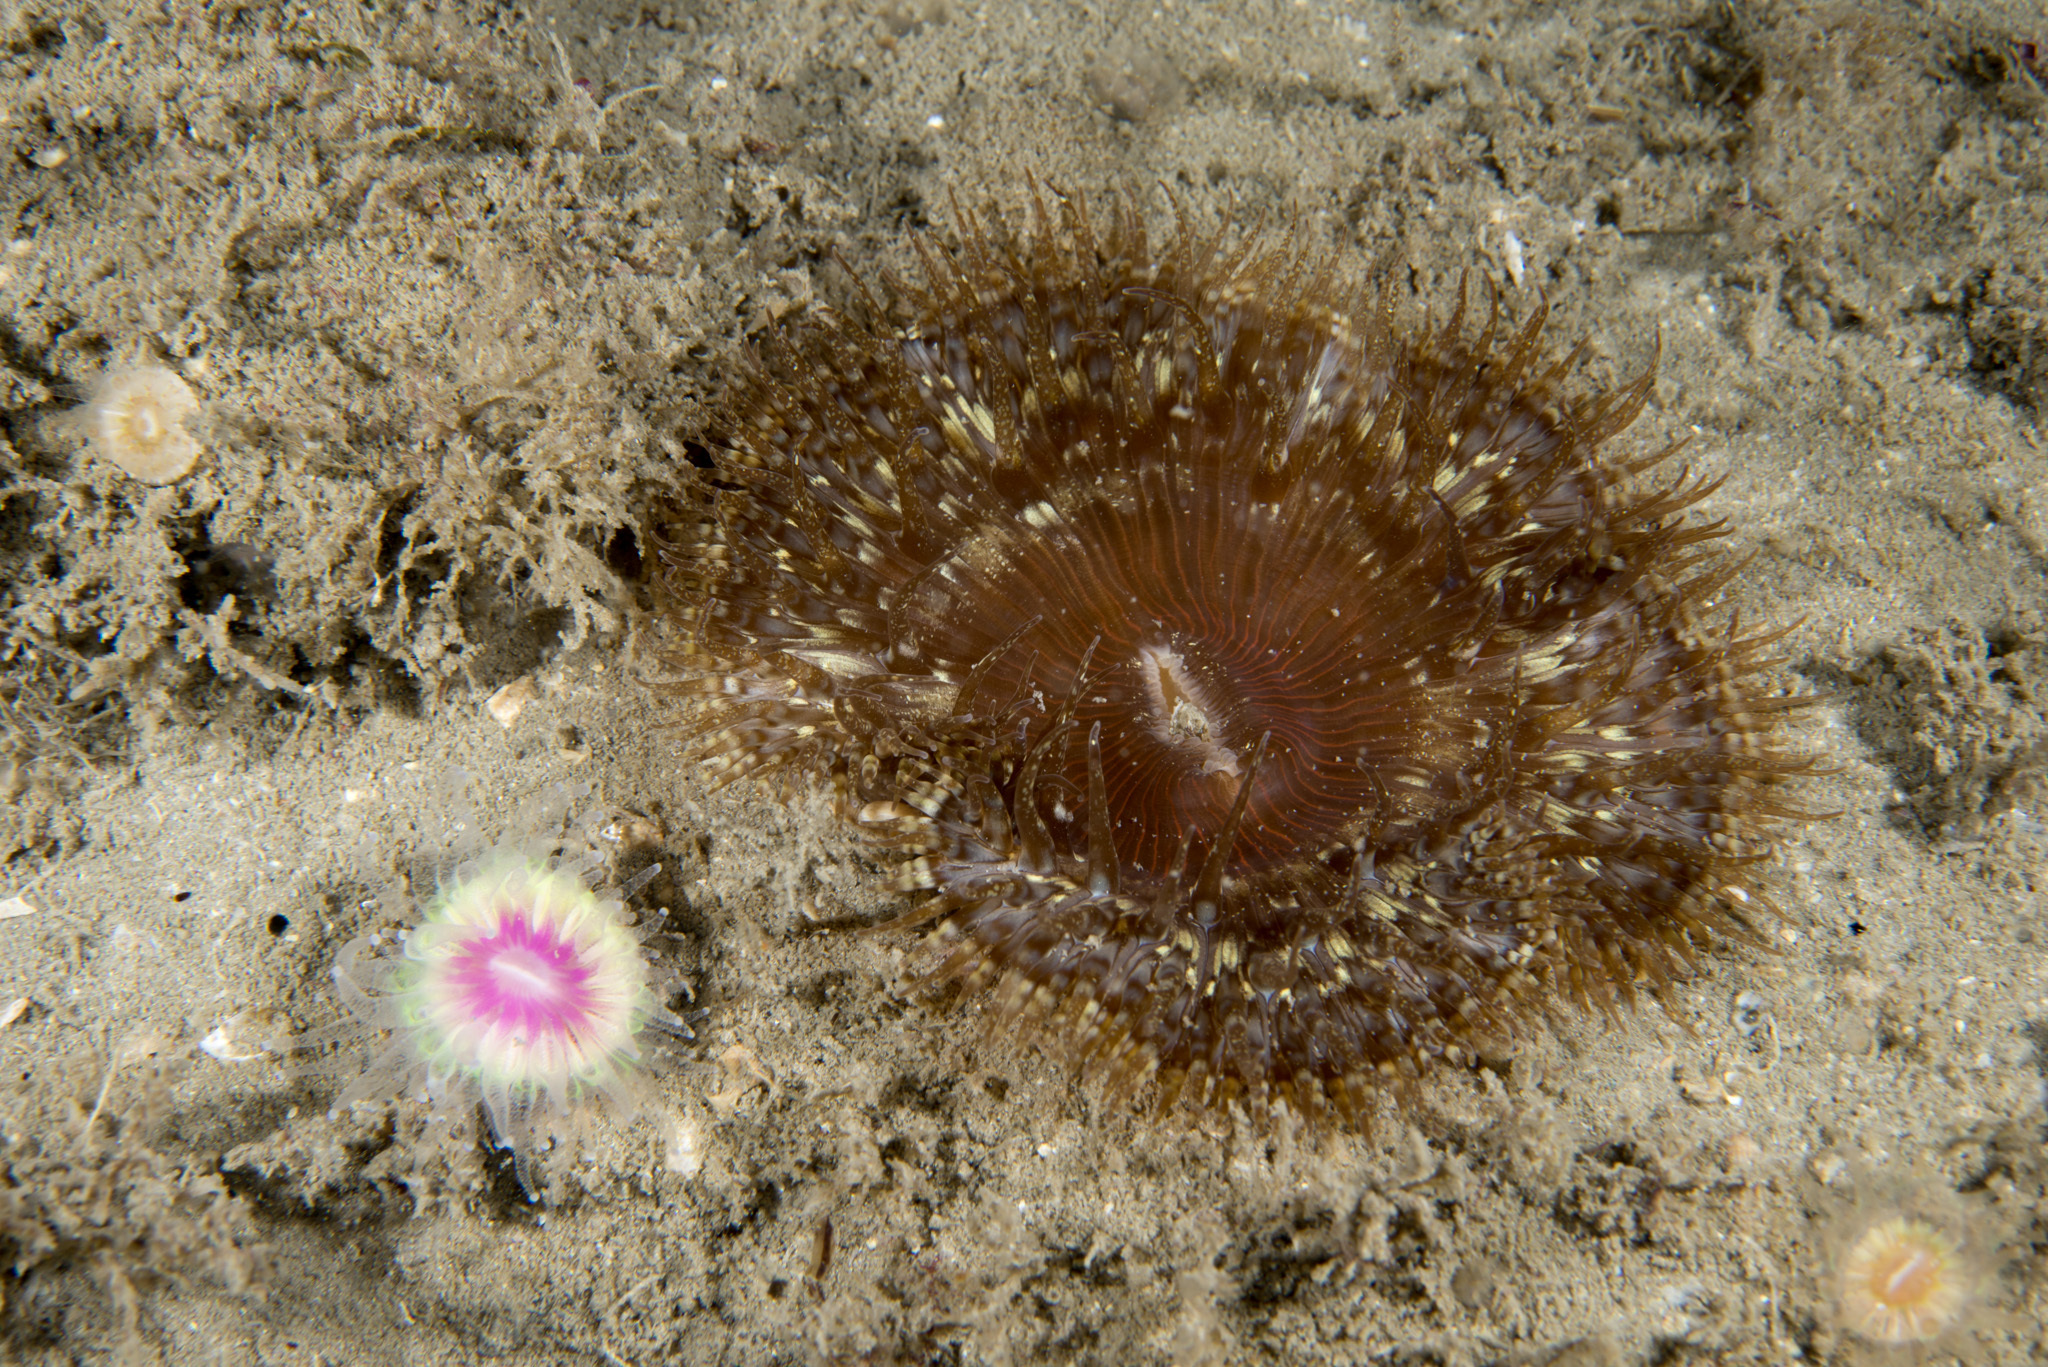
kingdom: Animalia
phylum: Cnidaria
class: Anthozoa
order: Actiniaria
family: Sagartiidae
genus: Cereus
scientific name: Cereus pedunculatus
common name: Daisy anemone
